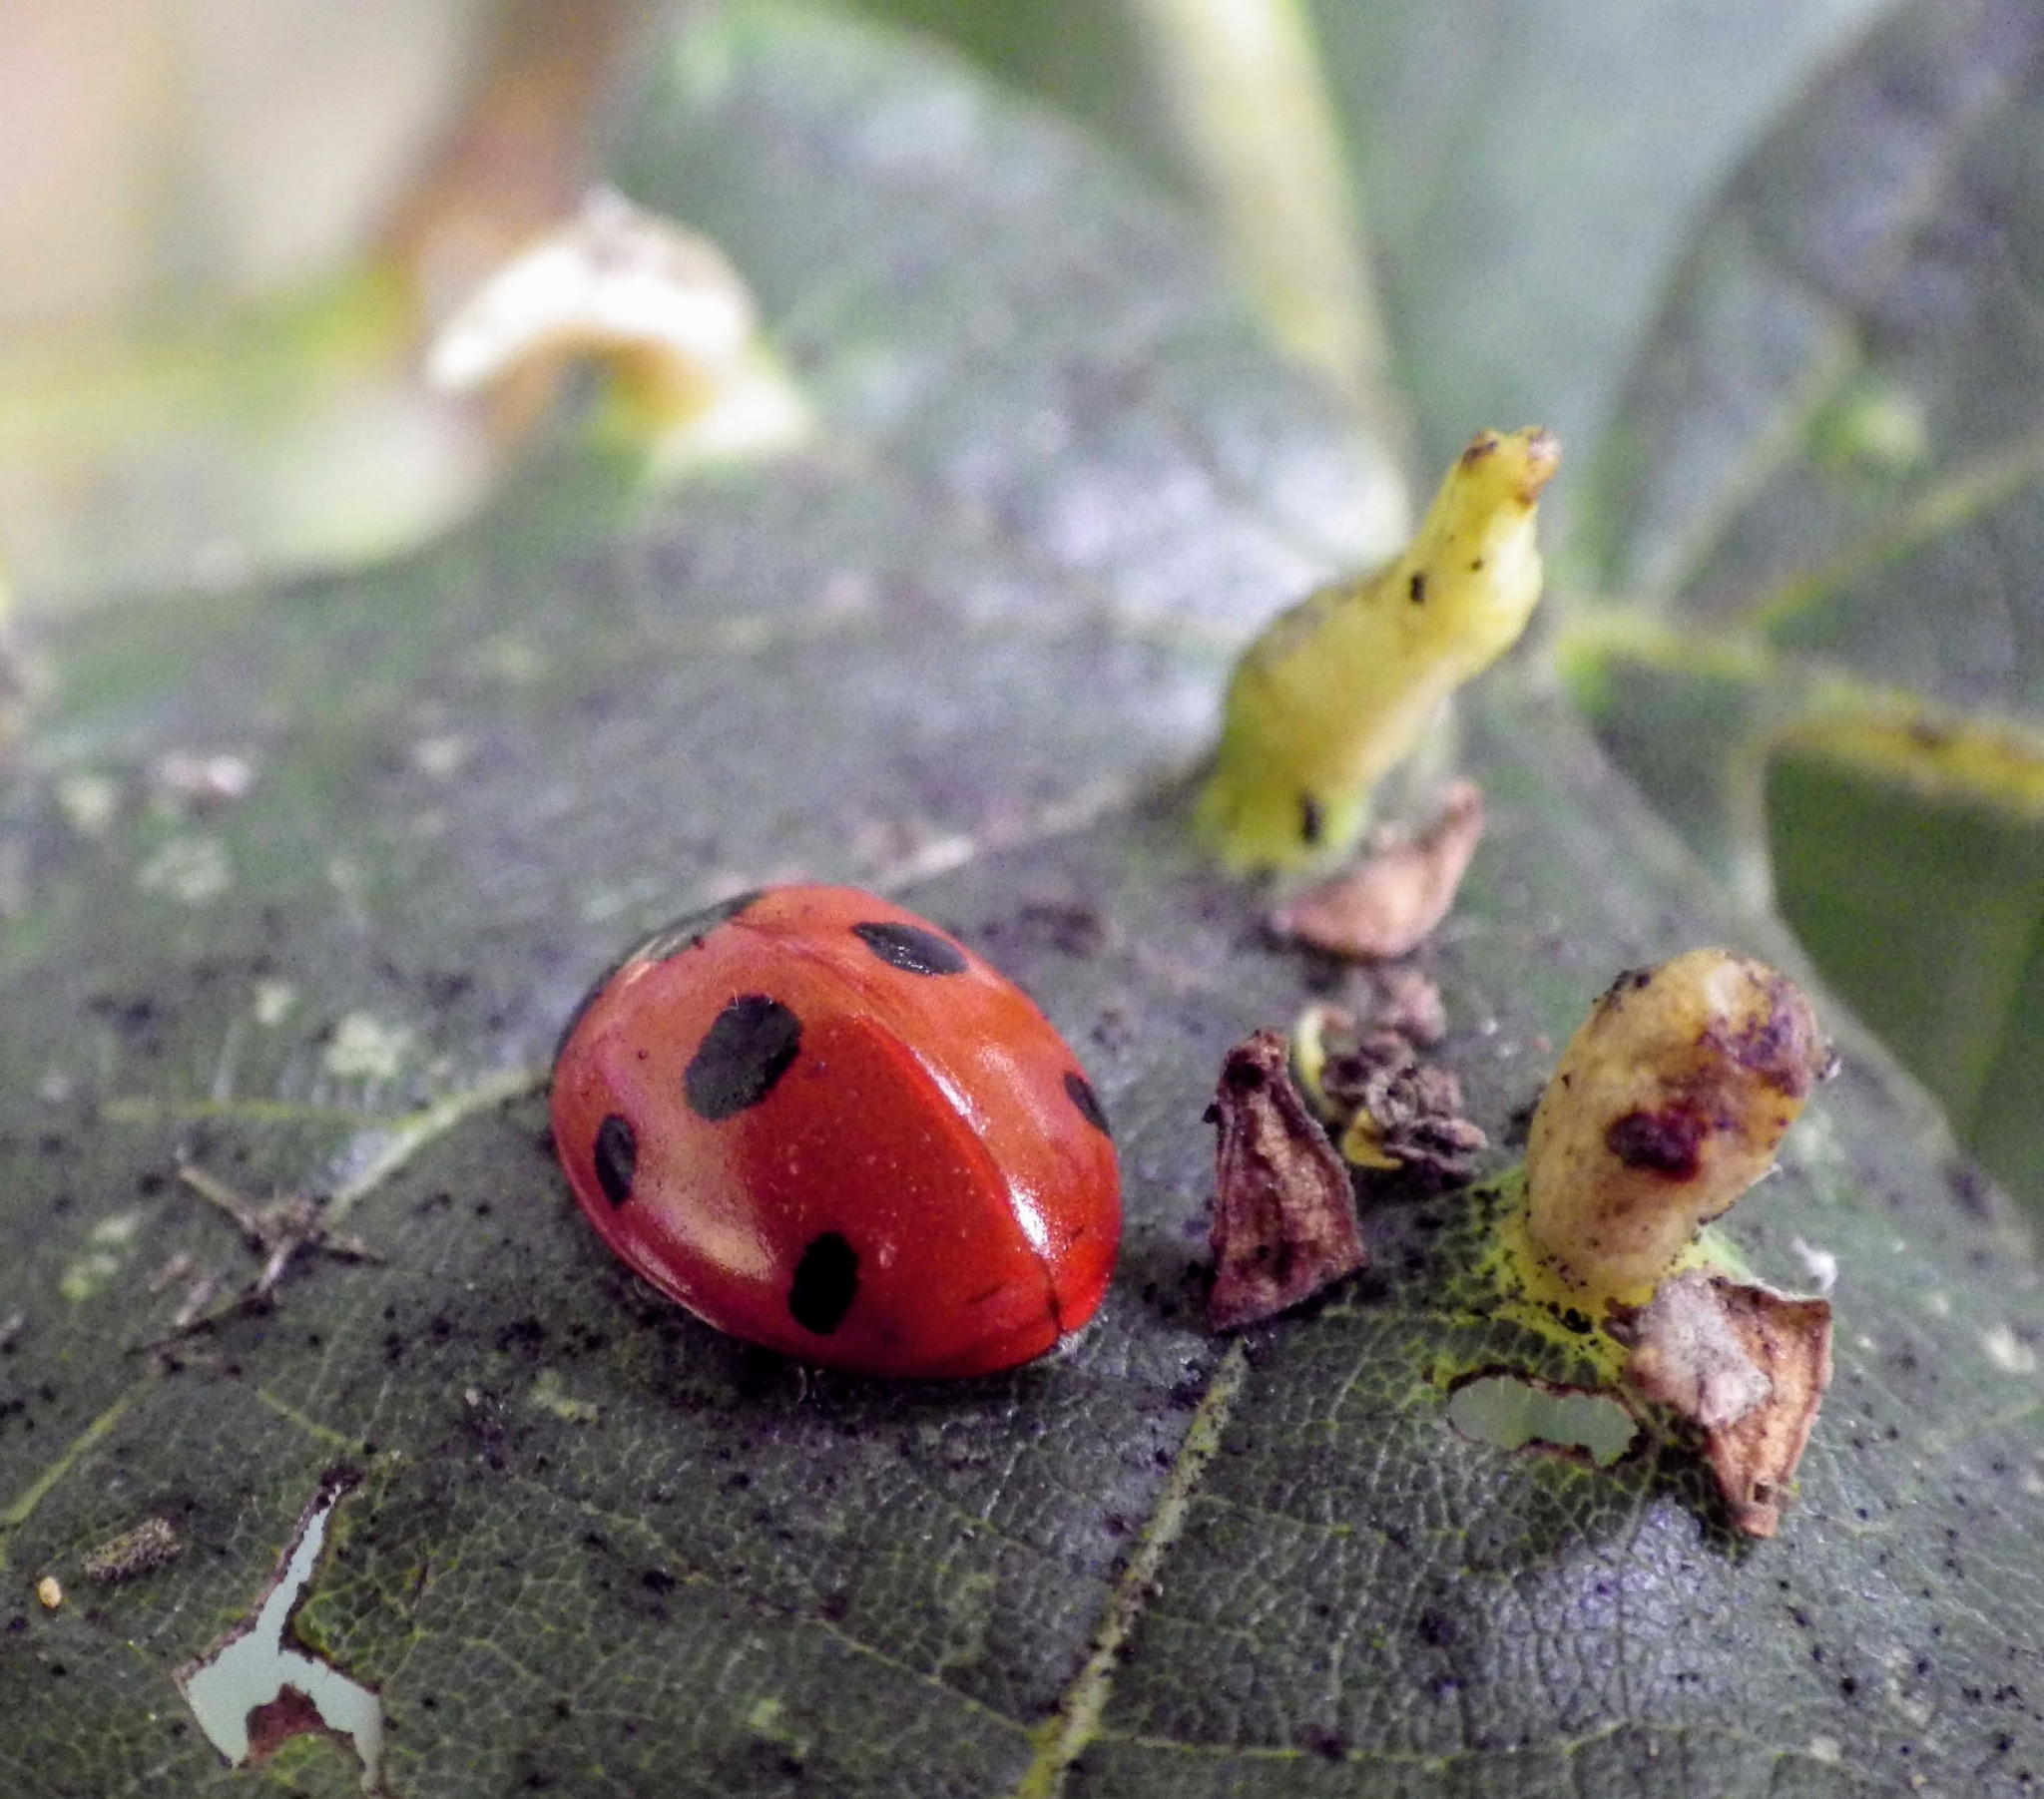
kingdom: Animalia
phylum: Arthropoda
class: Insecta
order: Coleoptera
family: Coccinellidae
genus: Coccinella
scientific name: Coccinella septempunctata
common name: Sevenspotted lady beetle
